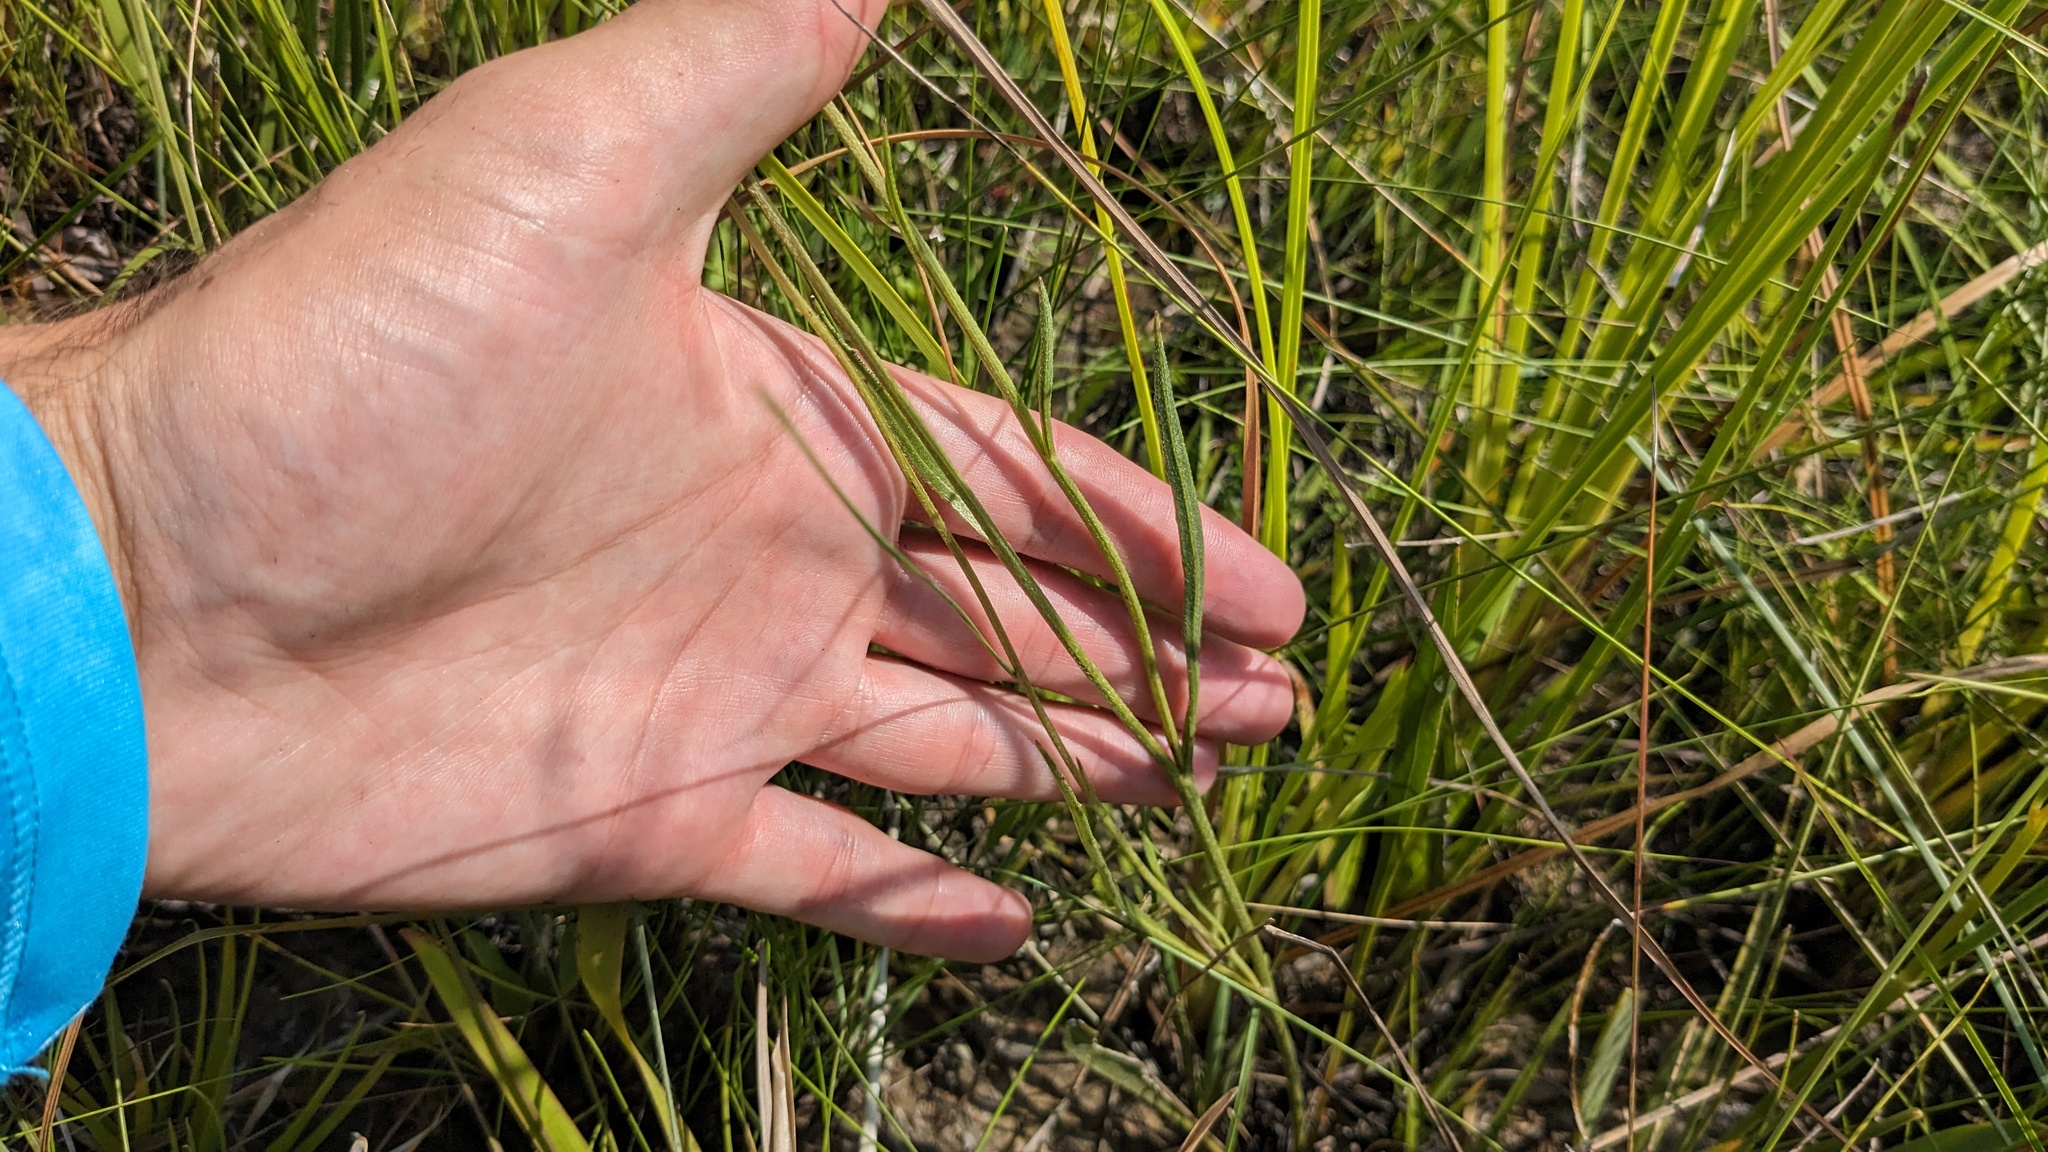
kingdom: Plantae
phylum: Tracheophyta
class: Magnoliopsida
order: Asterales
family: Asteraceae
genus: Rudbeckia
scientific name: Rudbeckia graminifolia
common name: Grass-leaf coneflower
